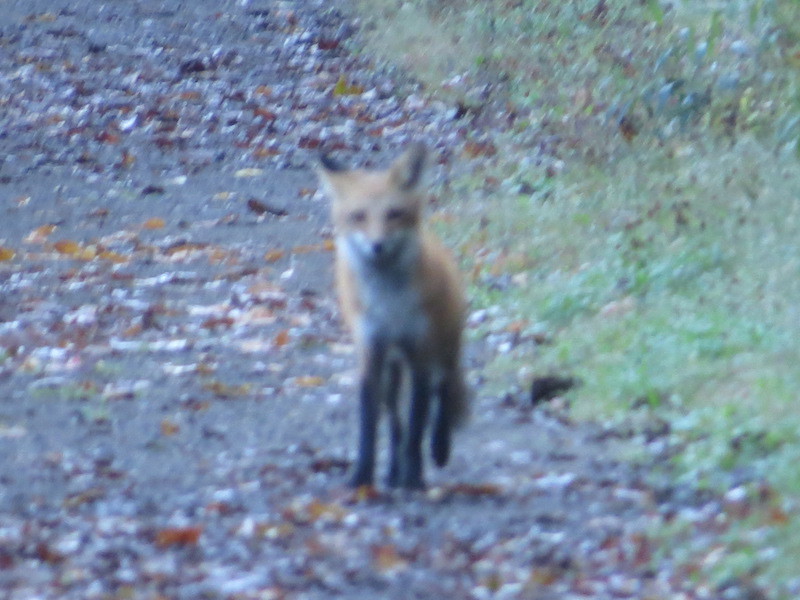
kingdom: Animalia
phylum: Chordata
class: Mammalia
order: Carnivora
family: Canidae
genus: Vulpes
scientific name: Vulpes vulpes
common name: Red fox
